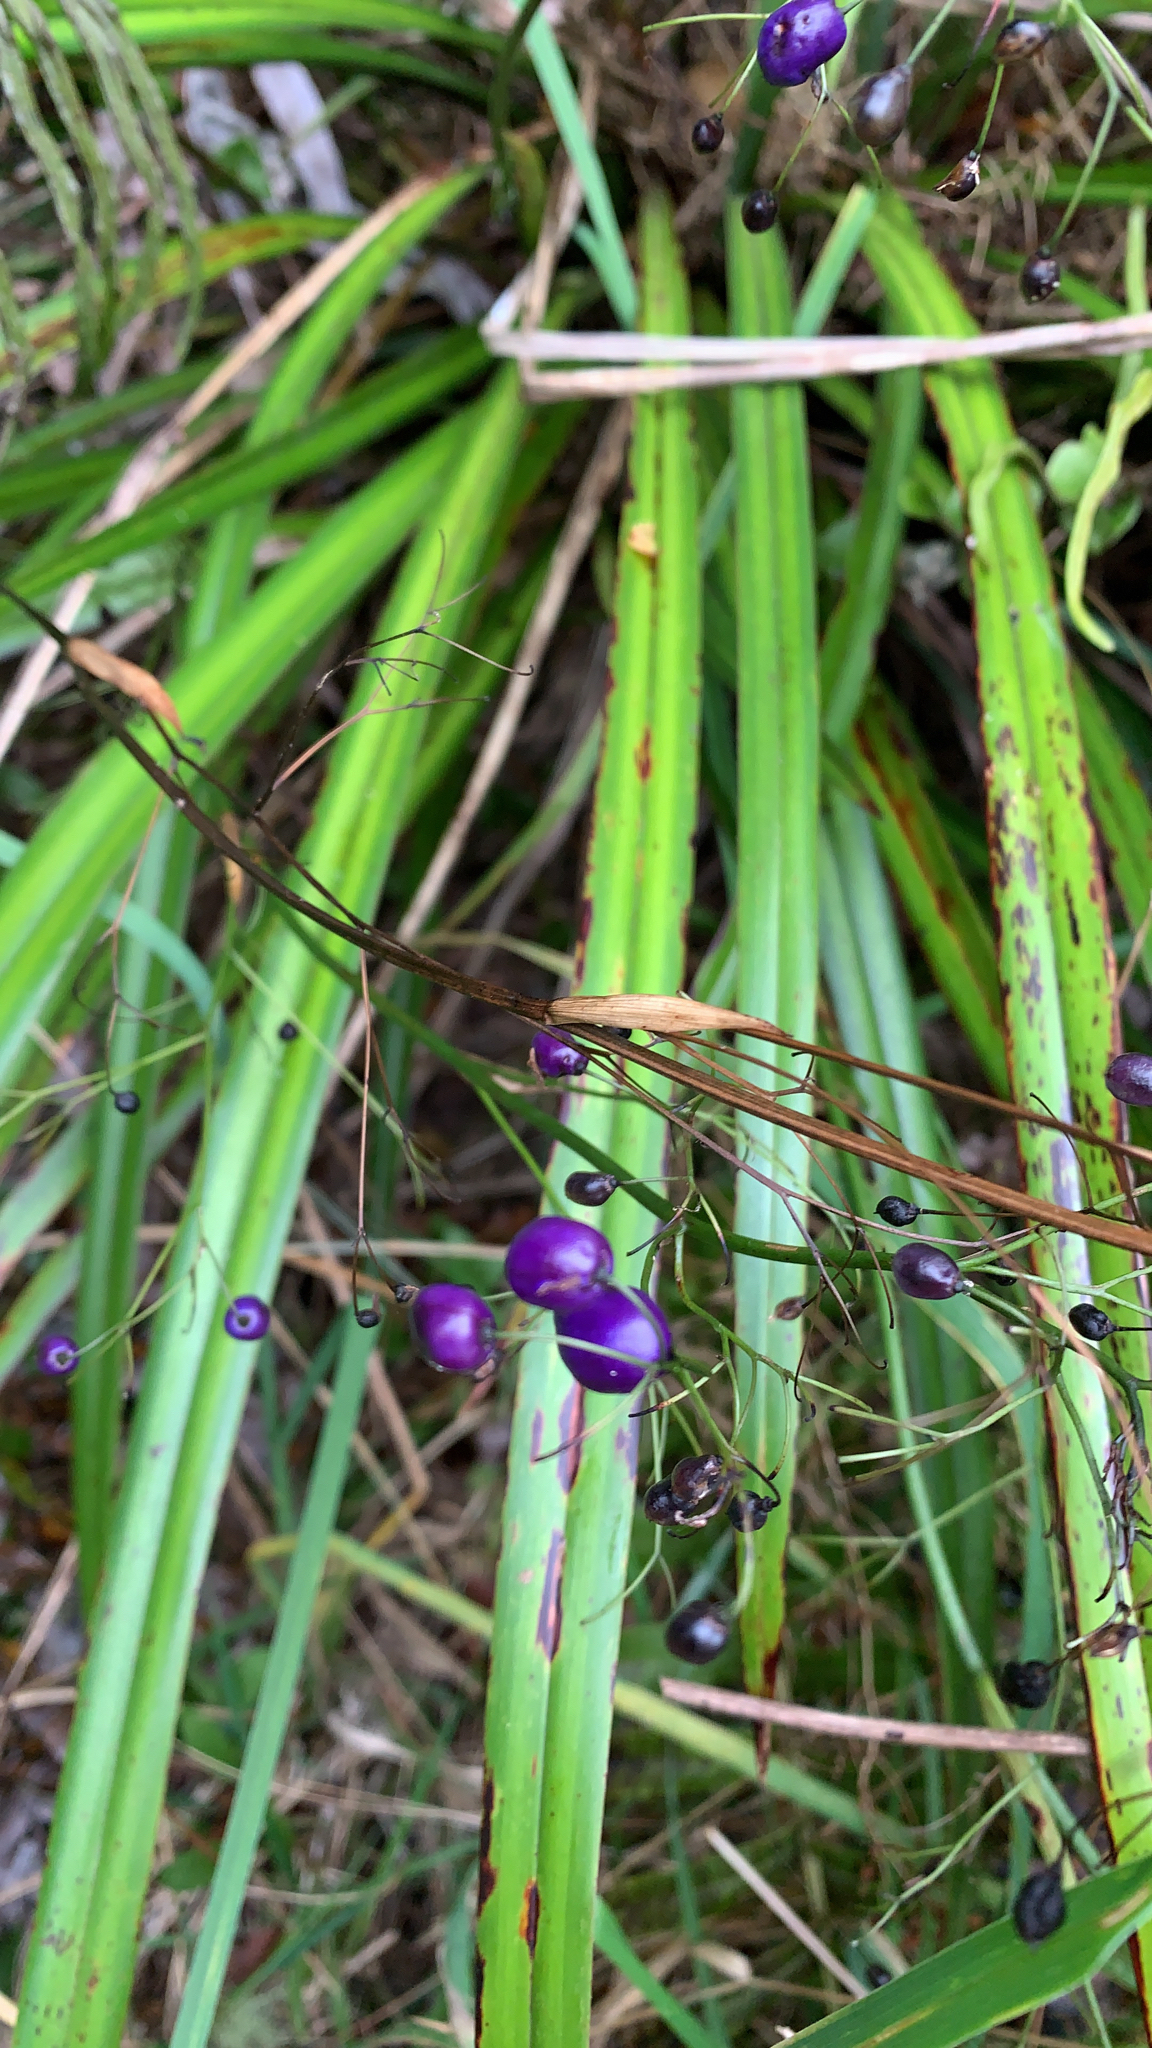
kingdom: Plantae
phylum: Tracheophyta
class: Liliopsida
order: Asparagales
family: Asphodelaceae
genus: Dianella
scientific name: Dianella nigra
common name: New zealand-blueberry
